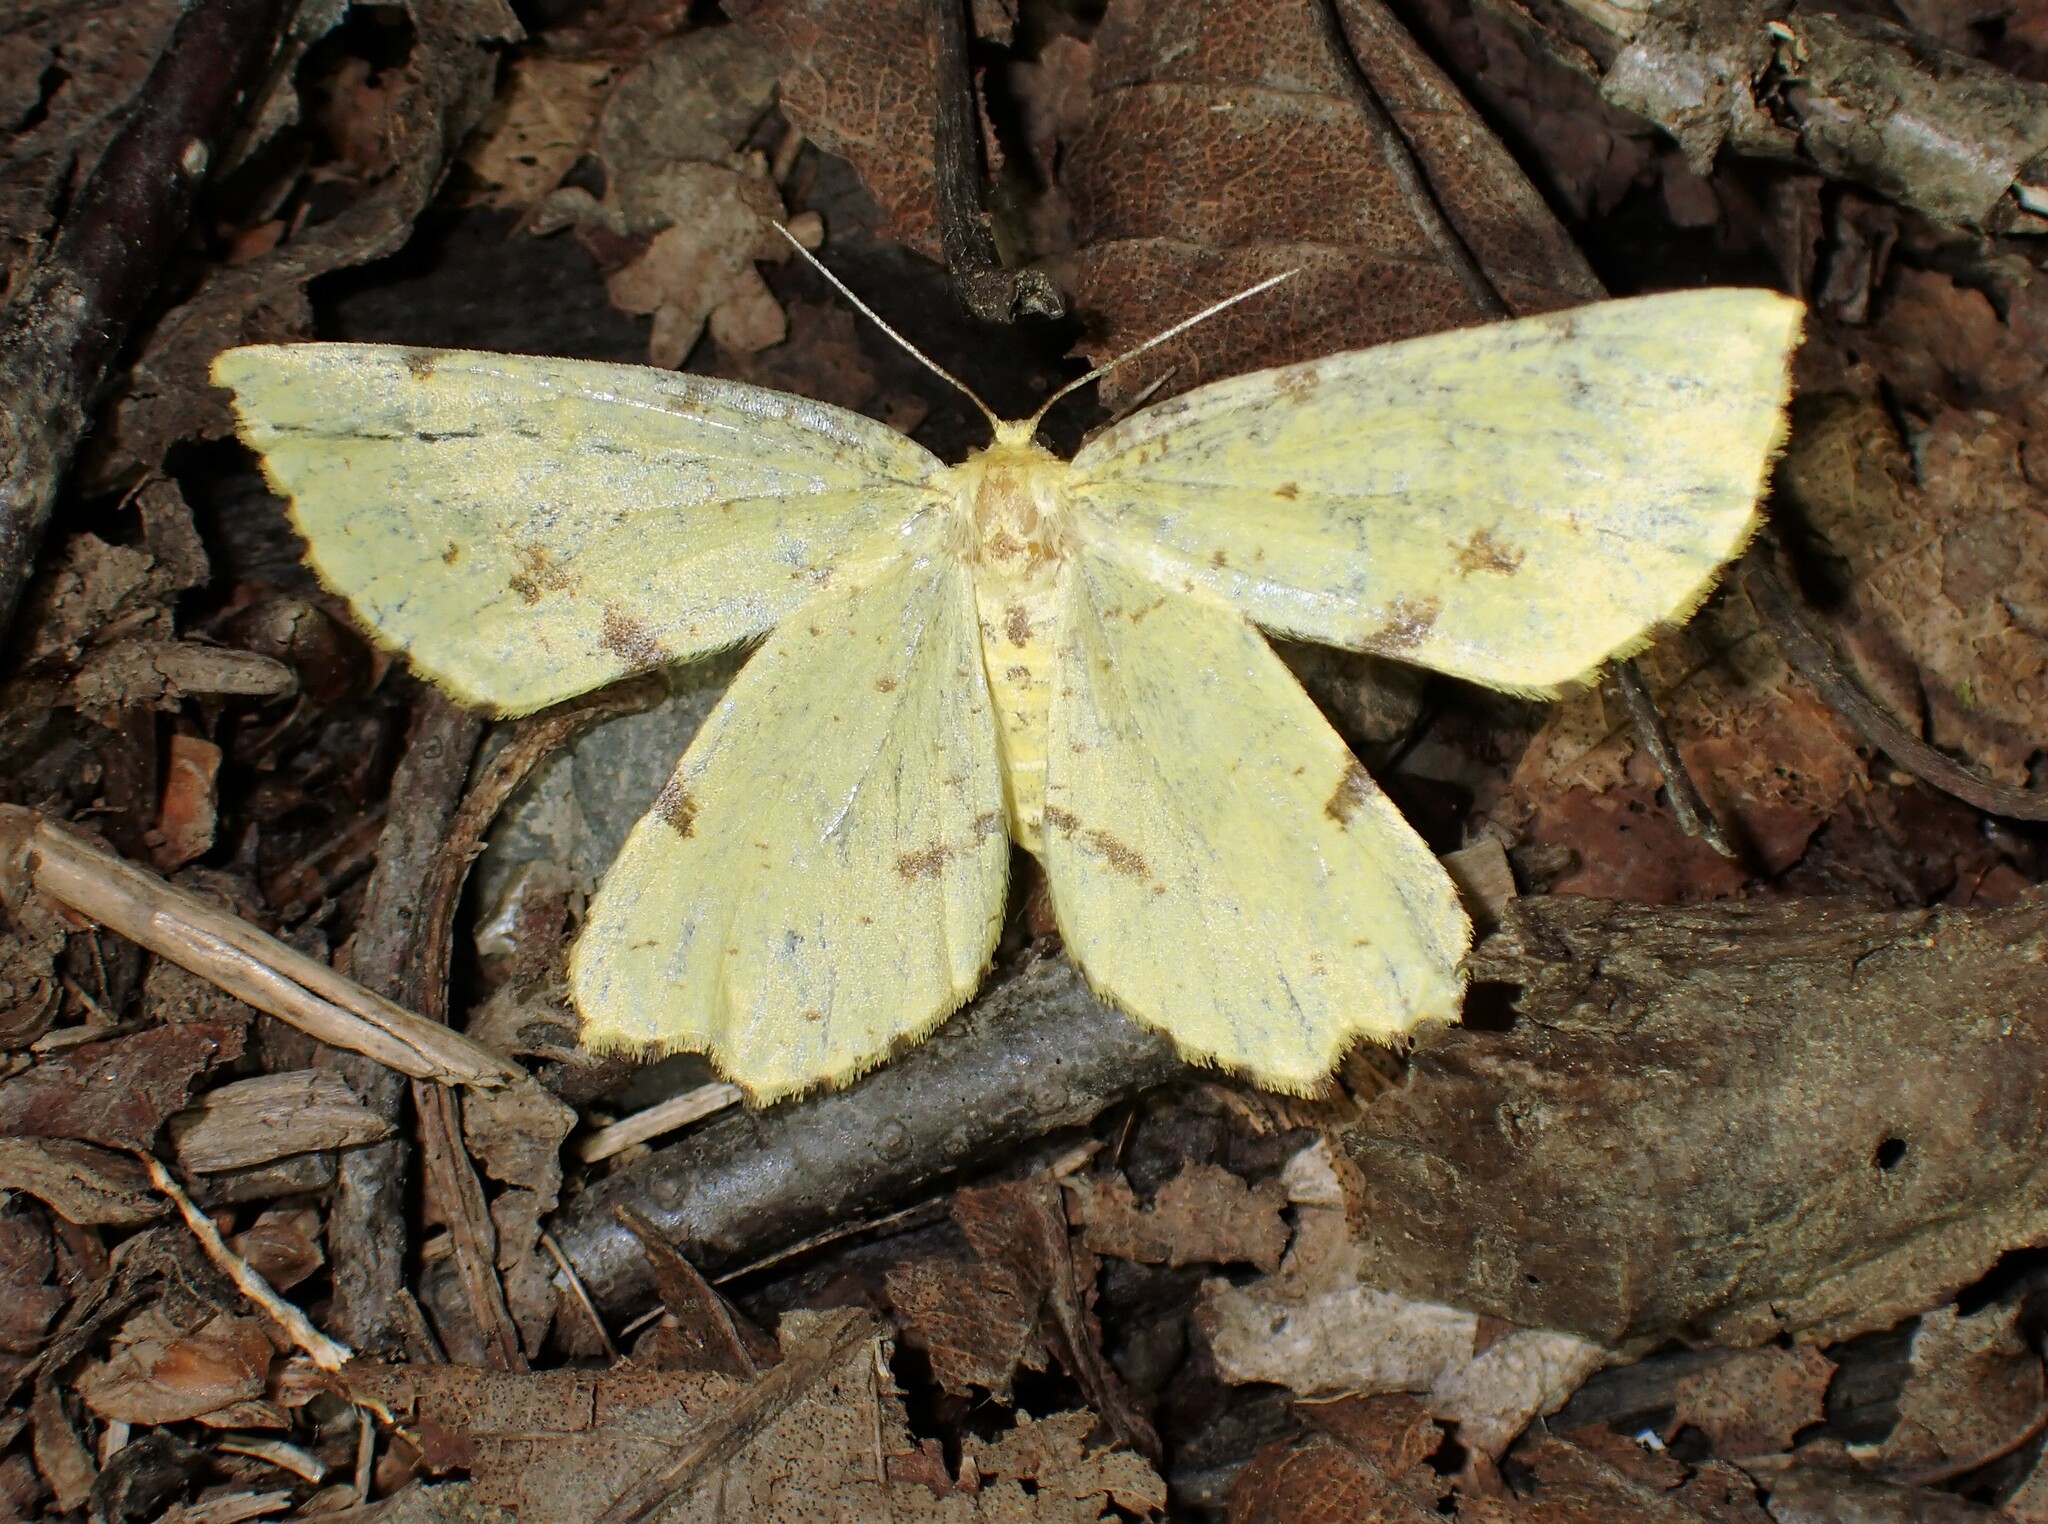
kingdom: Animalia
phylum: Arthropoda
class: Insecta
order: Lepidoptera
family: Geometridae
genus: Xanthotype
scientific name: Xanthotype
